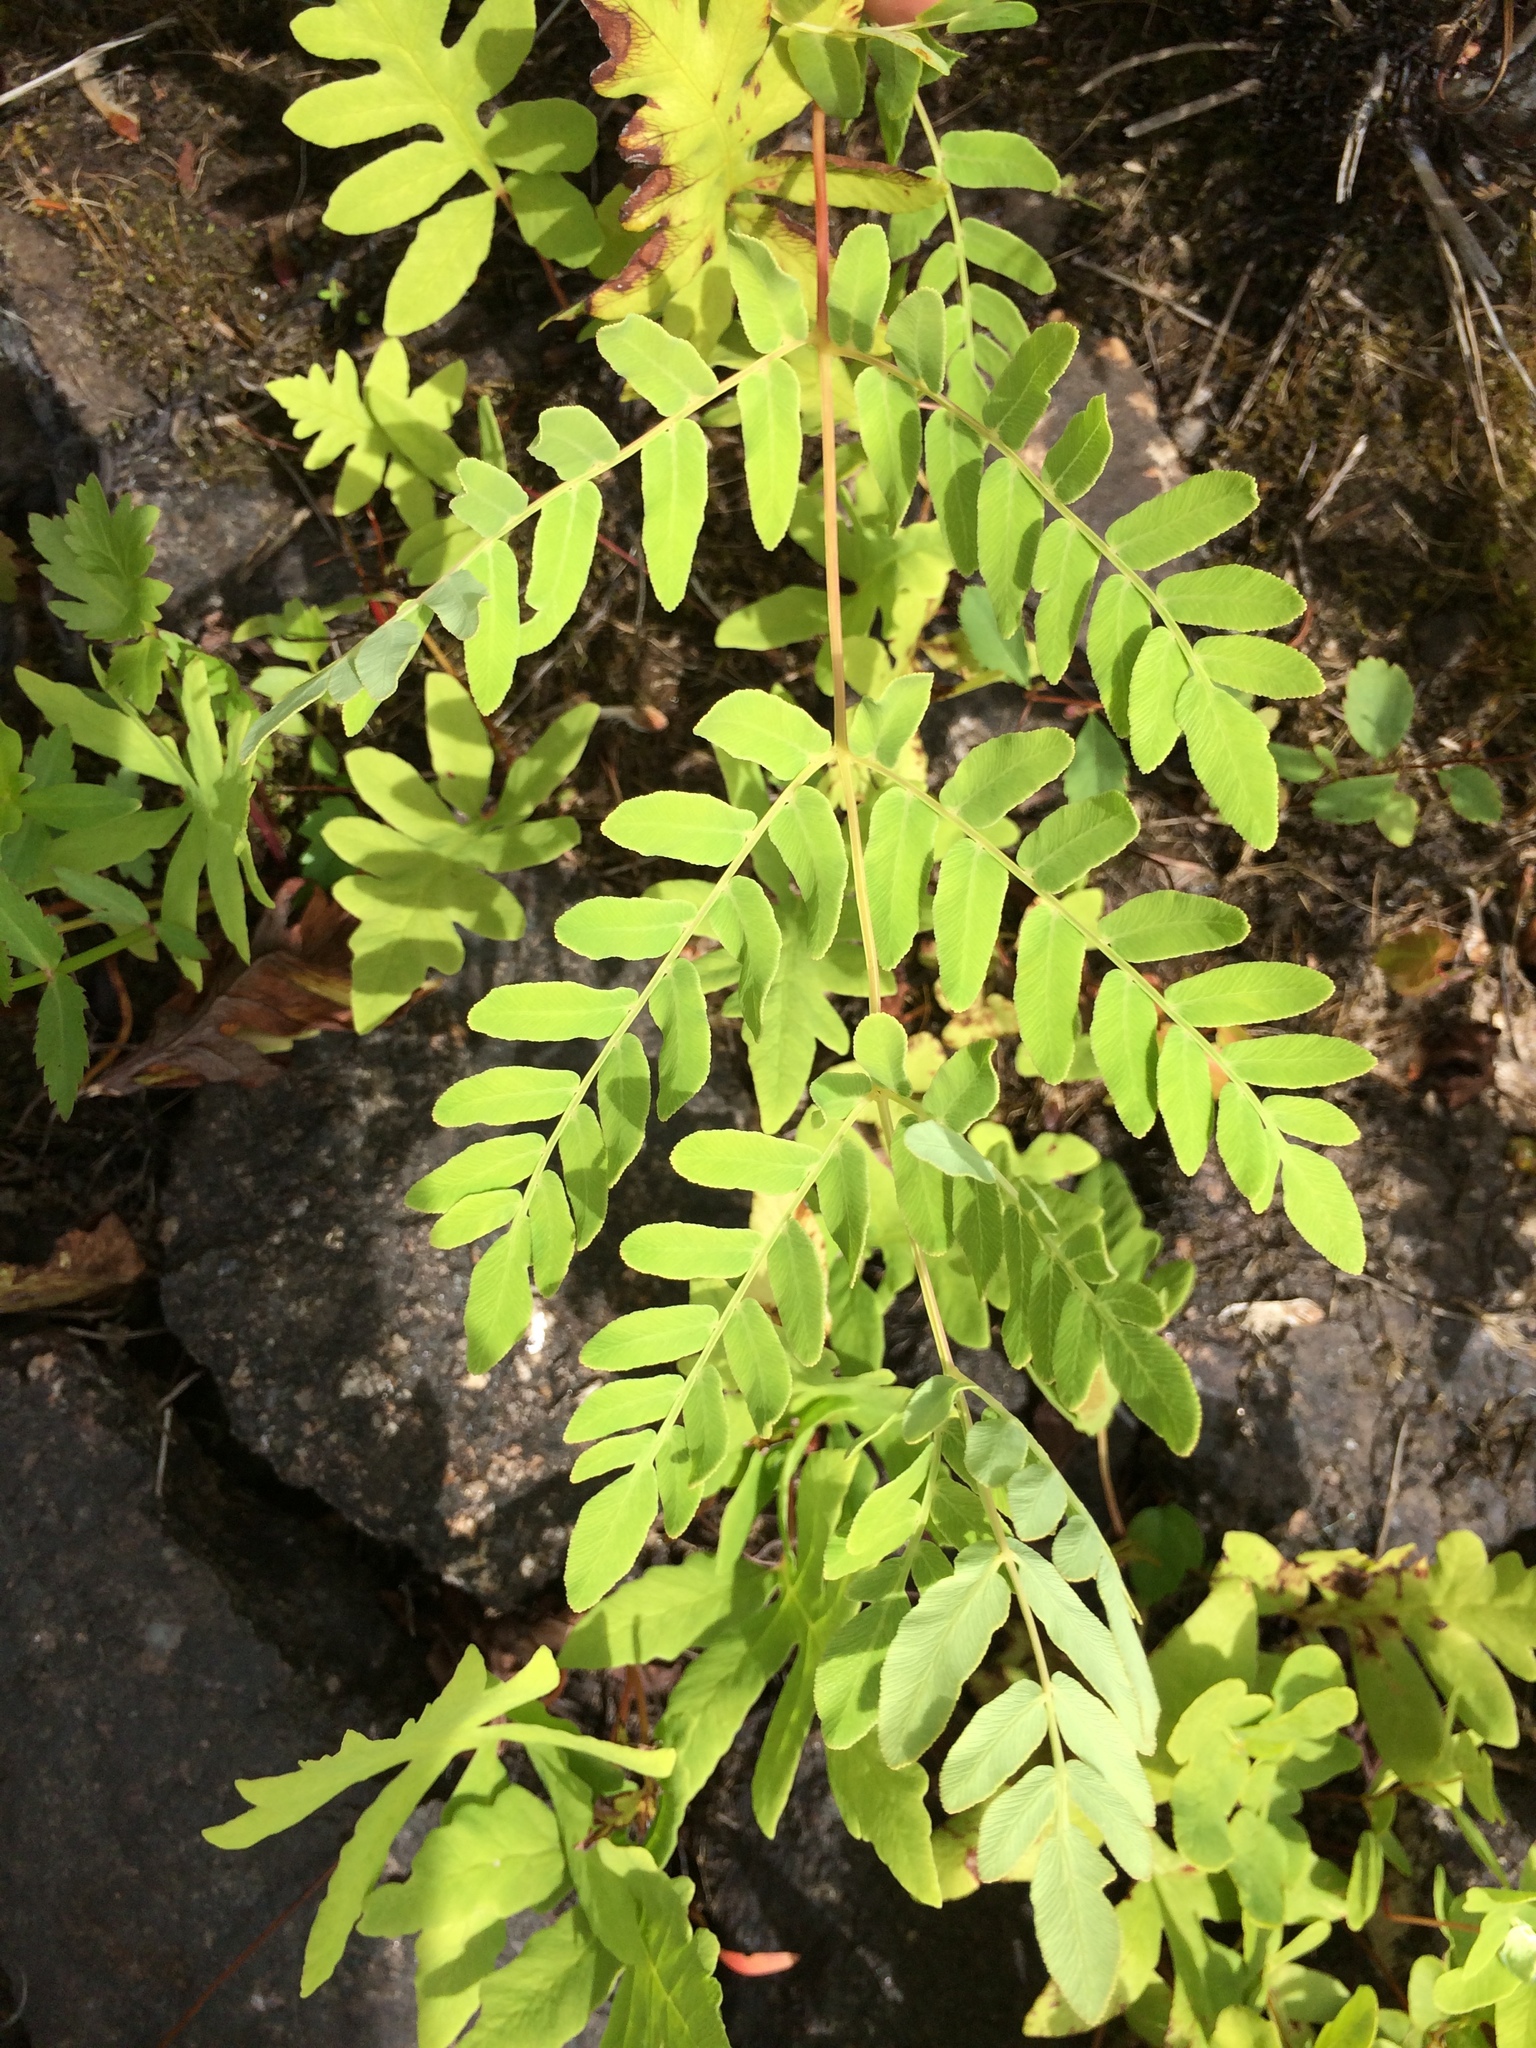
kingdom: Plantae
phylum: Tracheophyta
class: Polypodiopsida
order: Osmundales
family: Osmundaceae
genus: Osmunda
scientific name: Osmunda spectabilis
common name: American royal fern
